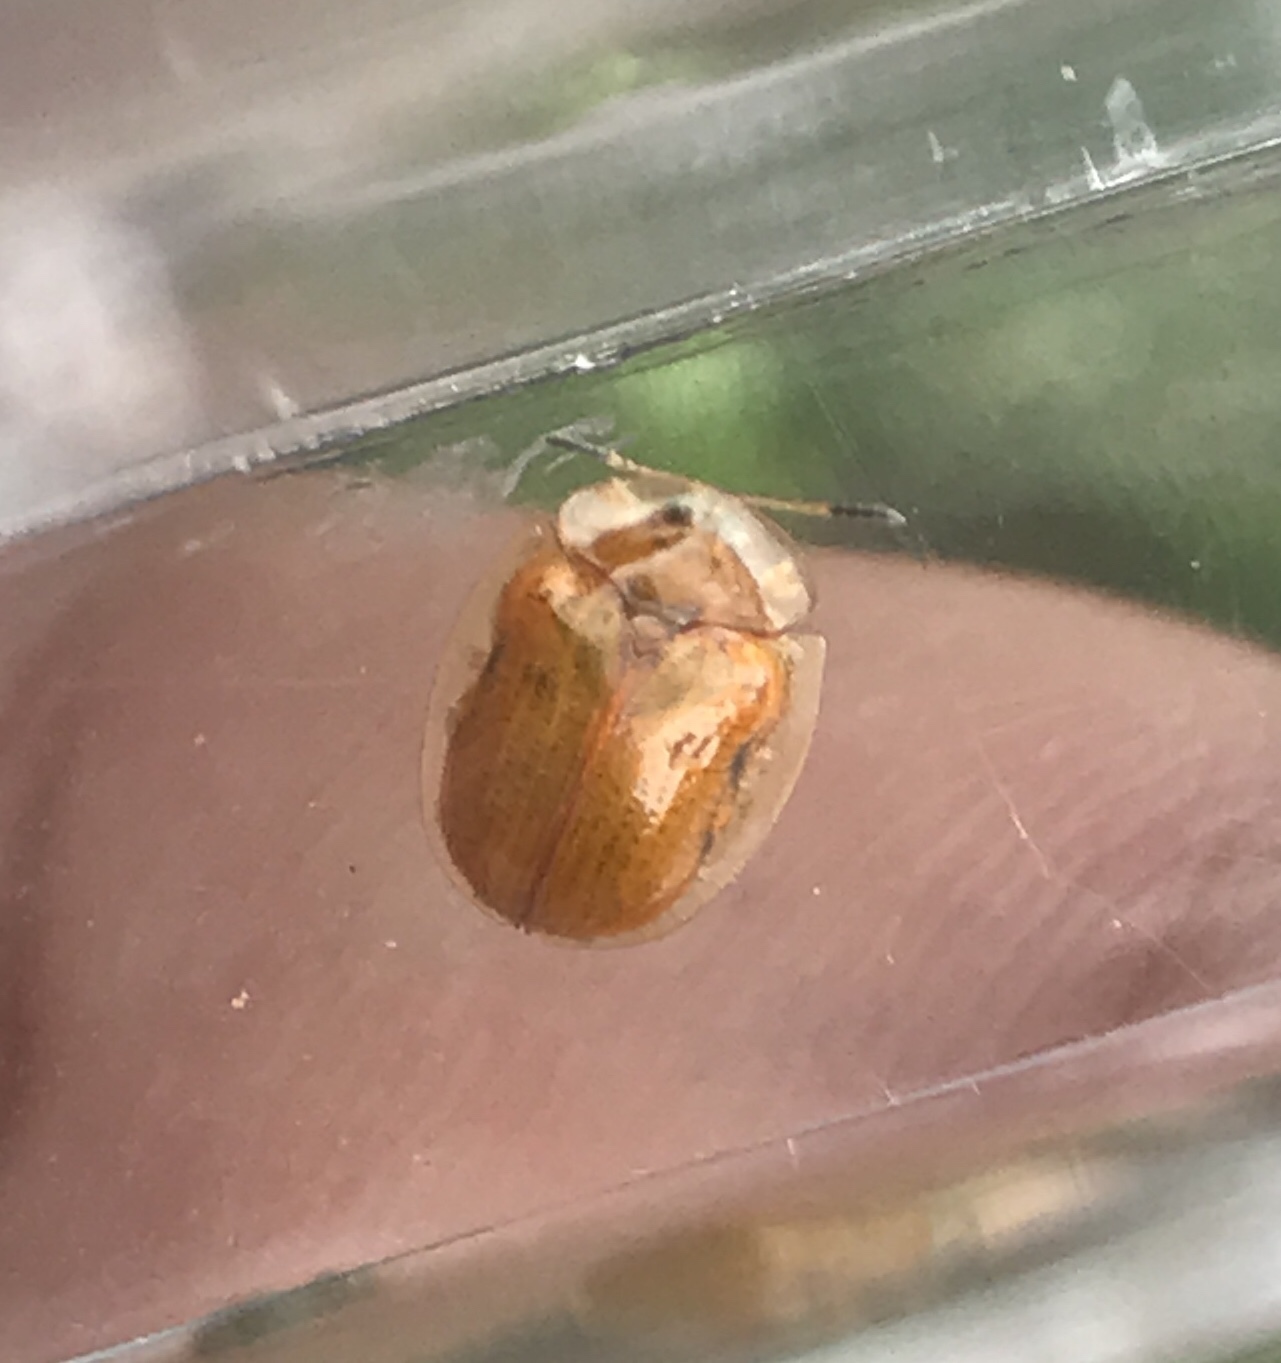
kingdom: Animalia
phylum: Arthropoda
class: Insecta
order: Coleoptera
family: Chrysomelidae
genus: Charidotella
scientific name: Charidotella sexpunctata
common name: Golden tortoise beetle
